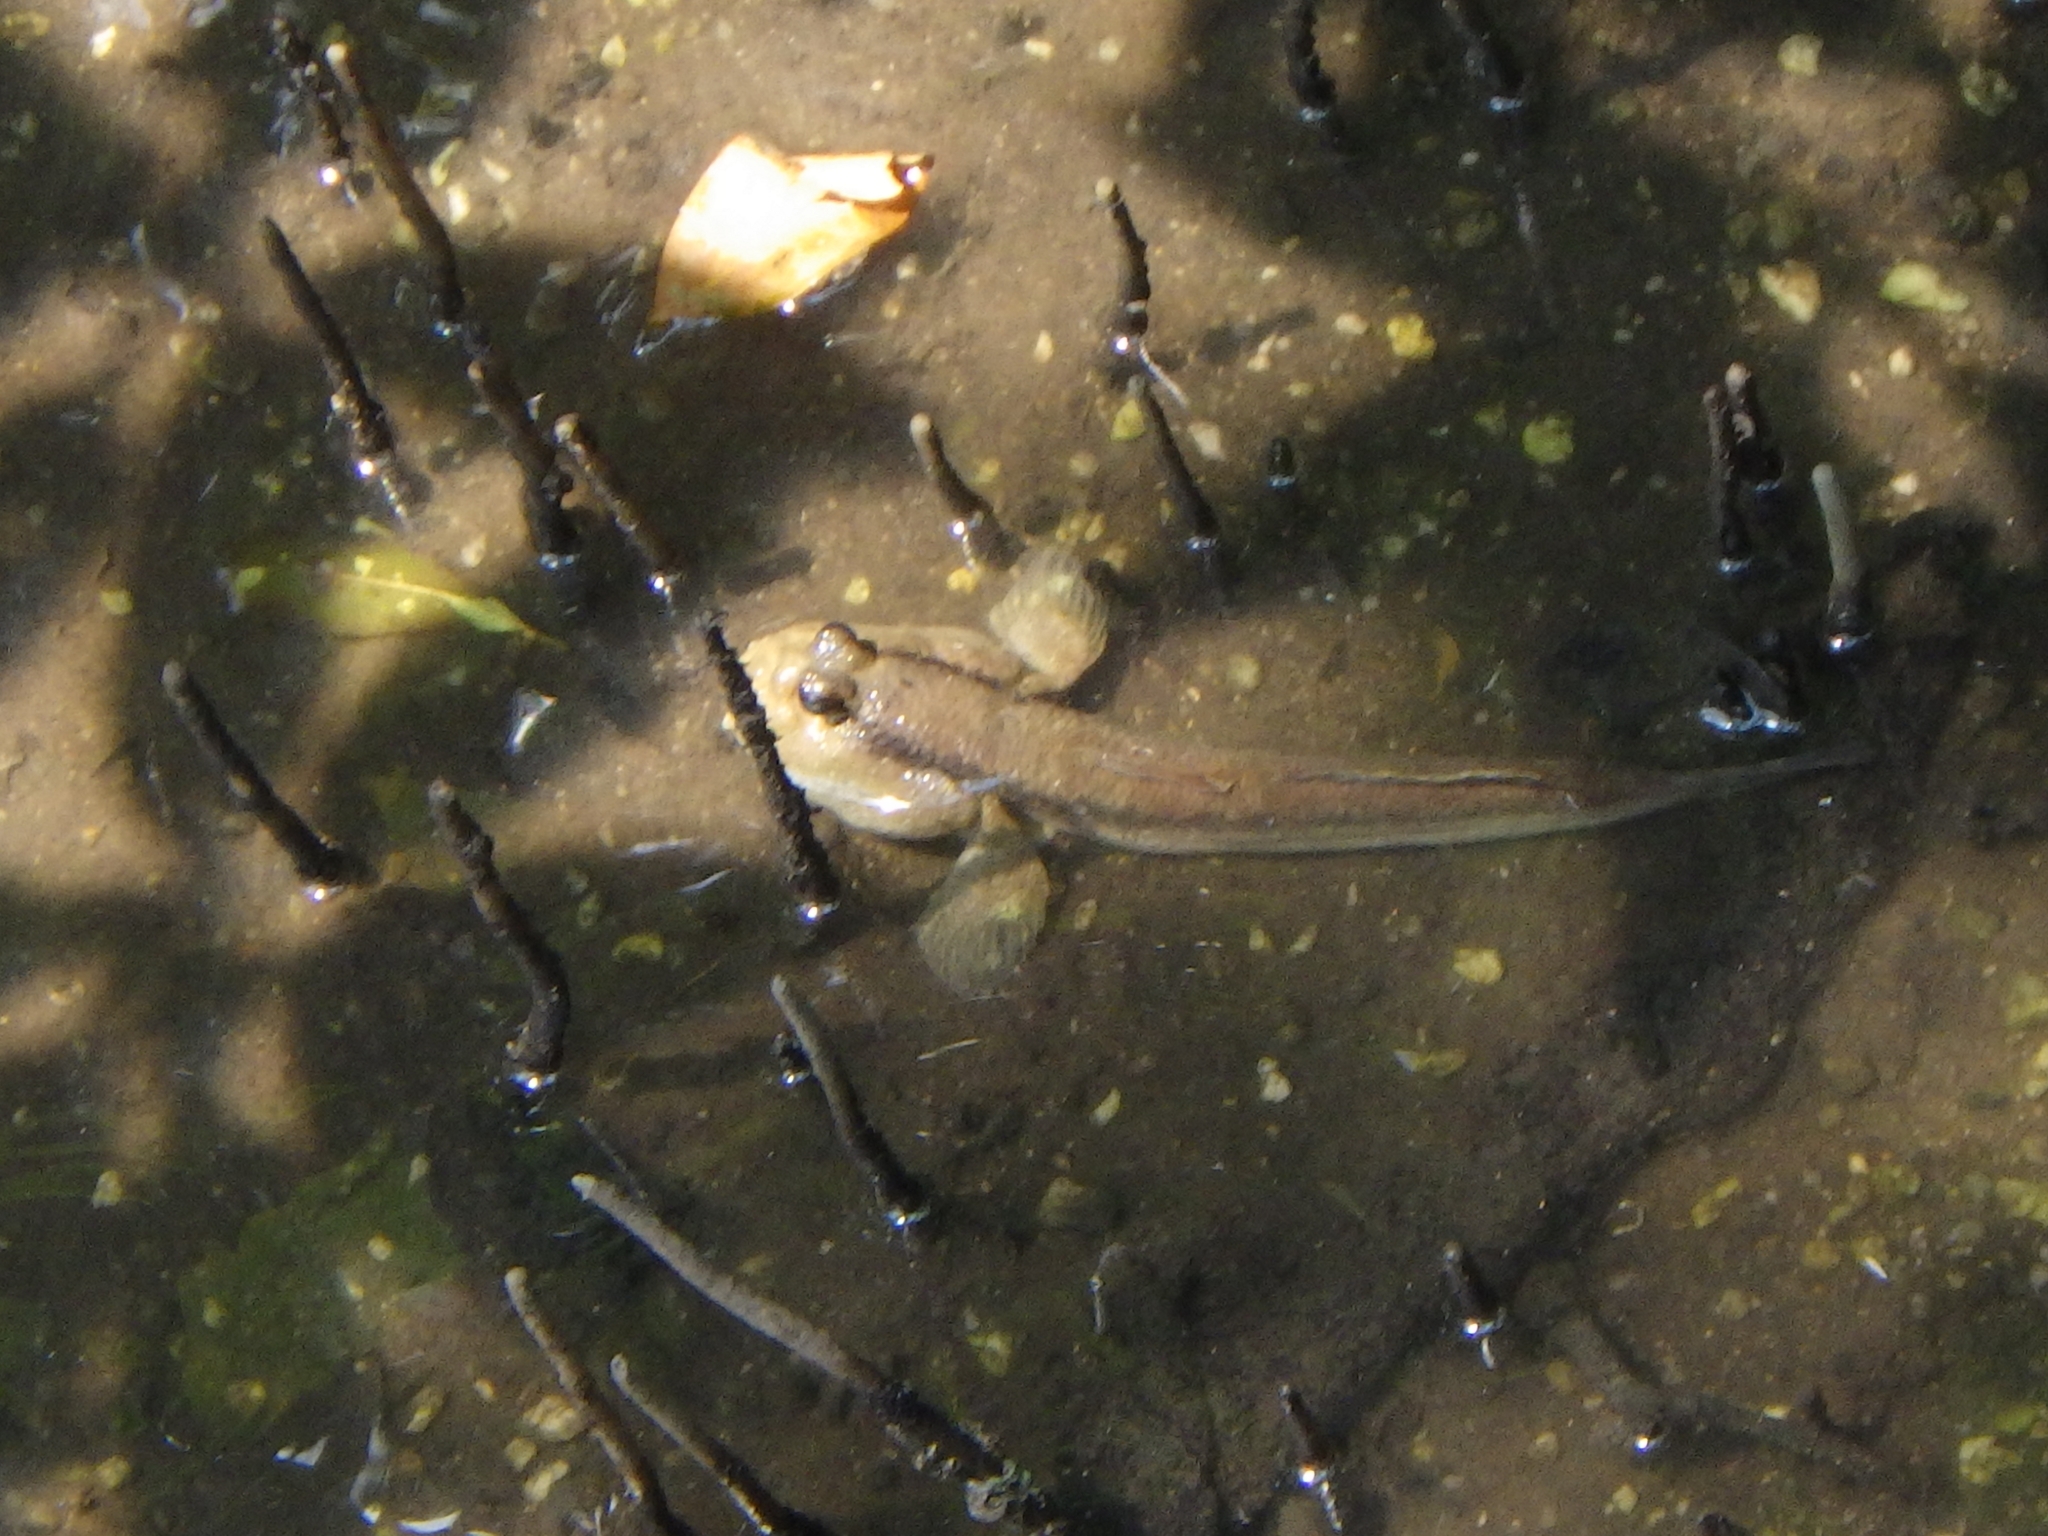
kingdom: Animalia
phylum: Chordata
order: Perciformes
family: Gobiidae
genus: Periophthalmodon
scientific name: Periophthalmodon schlosseri
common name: Giant mudskipper
